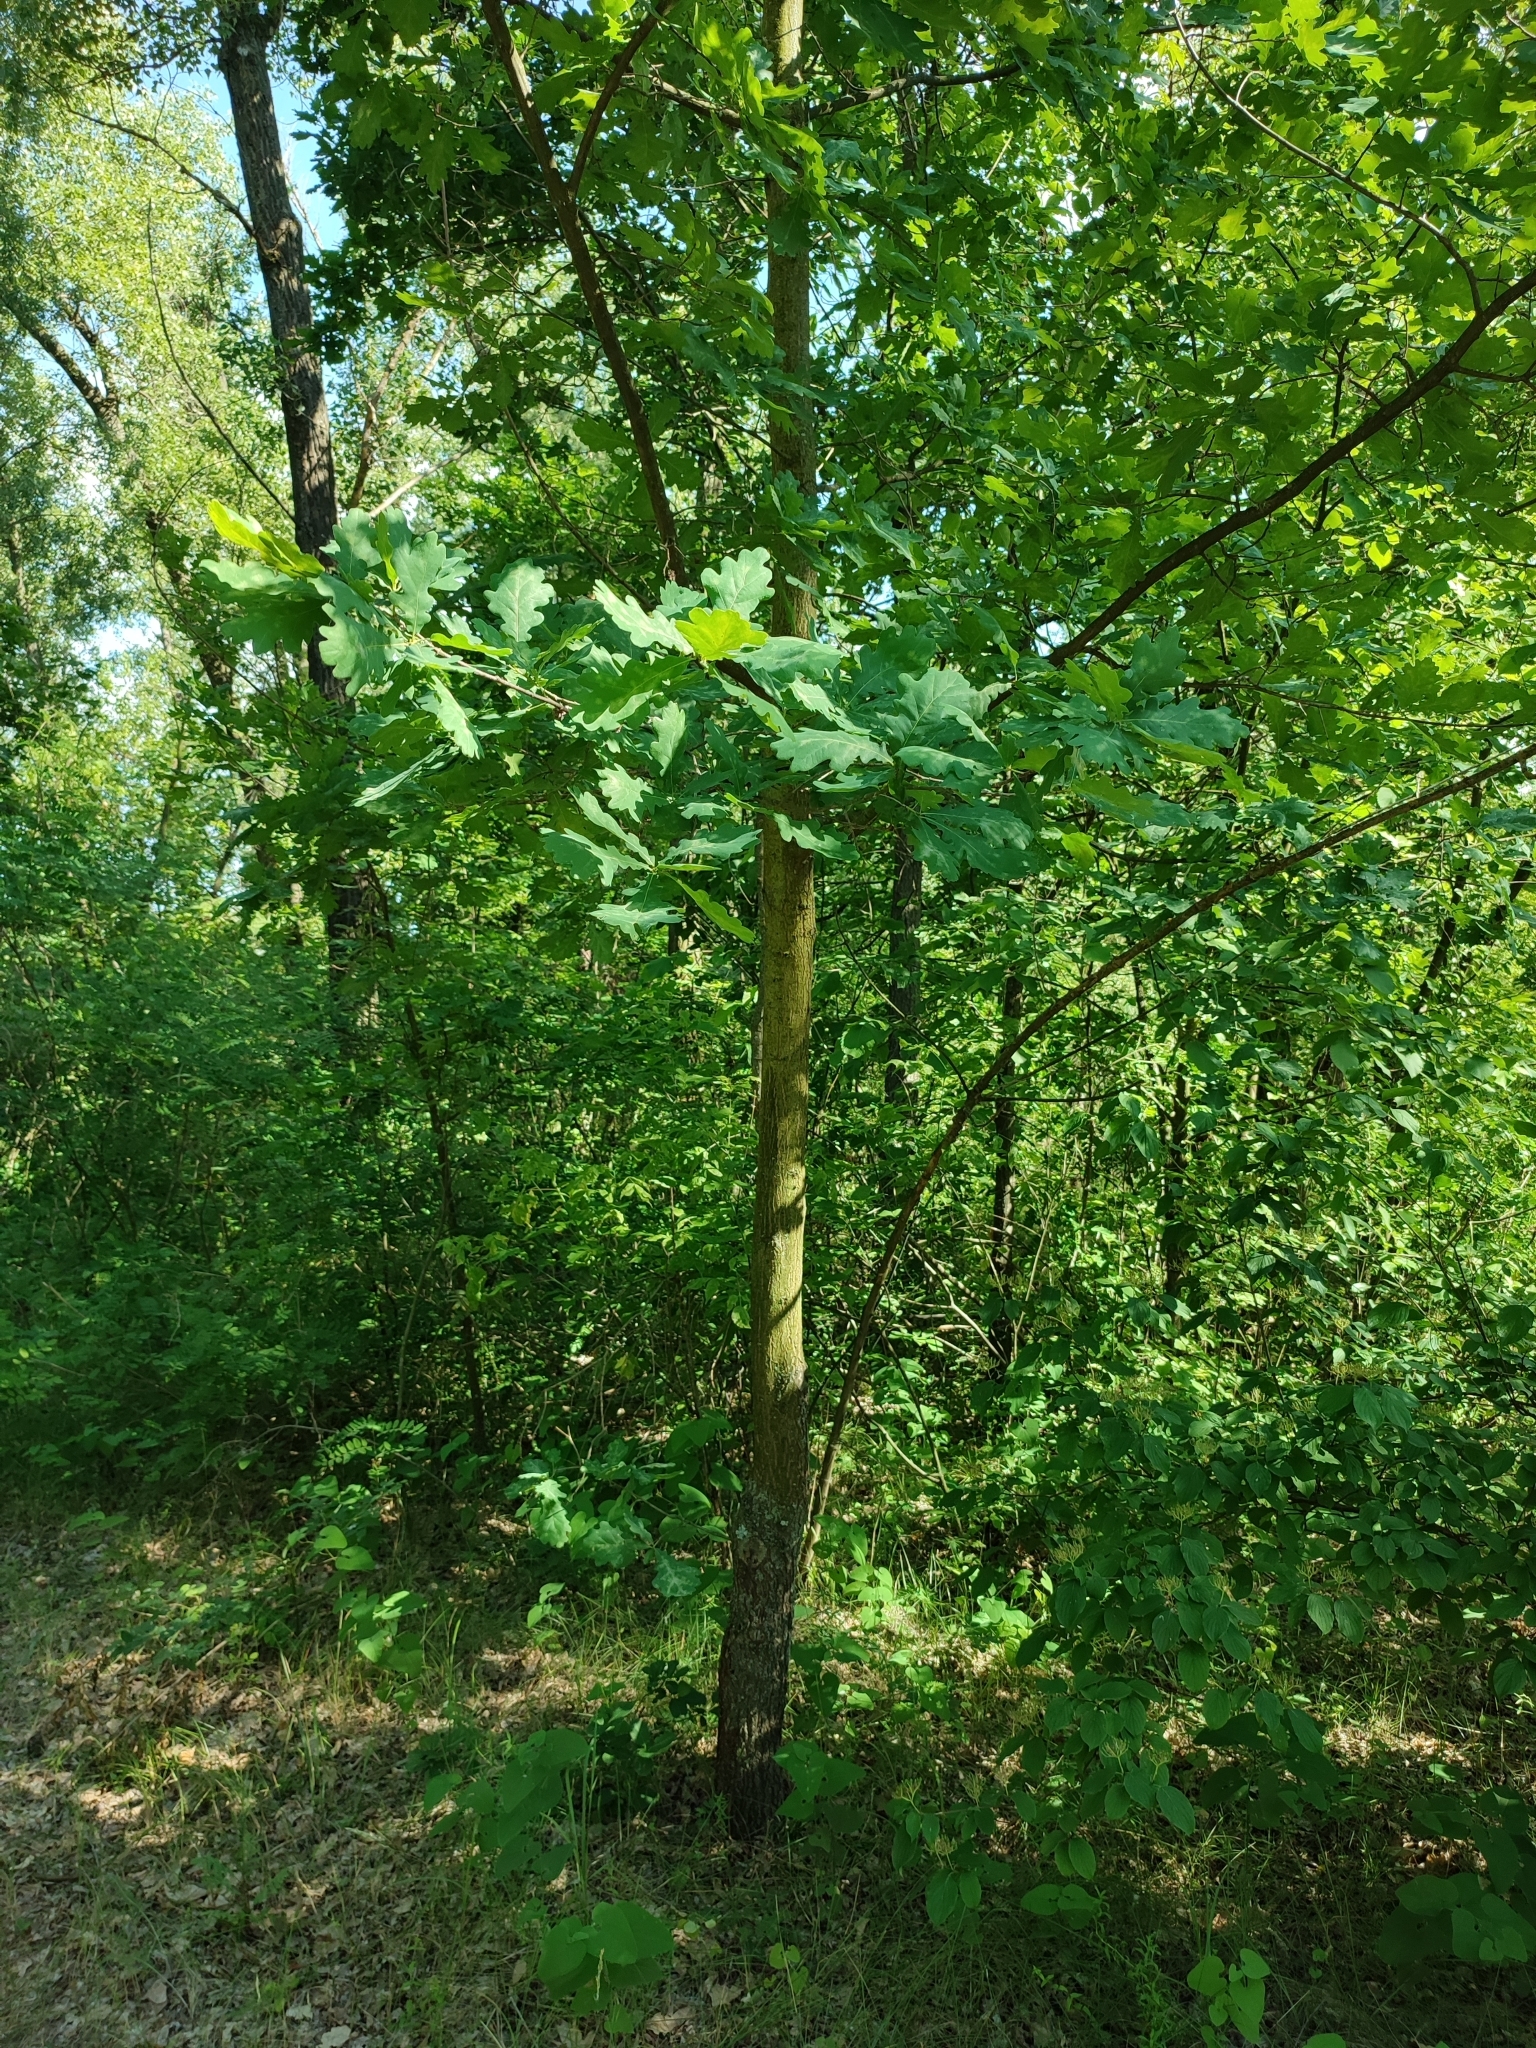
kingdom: Plantae
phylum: Tracheophyta
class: Magnoliopsida
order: Fagales
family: Fagaceae
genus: Quercus
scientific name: Quercus robur
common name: Pedunculate oak
